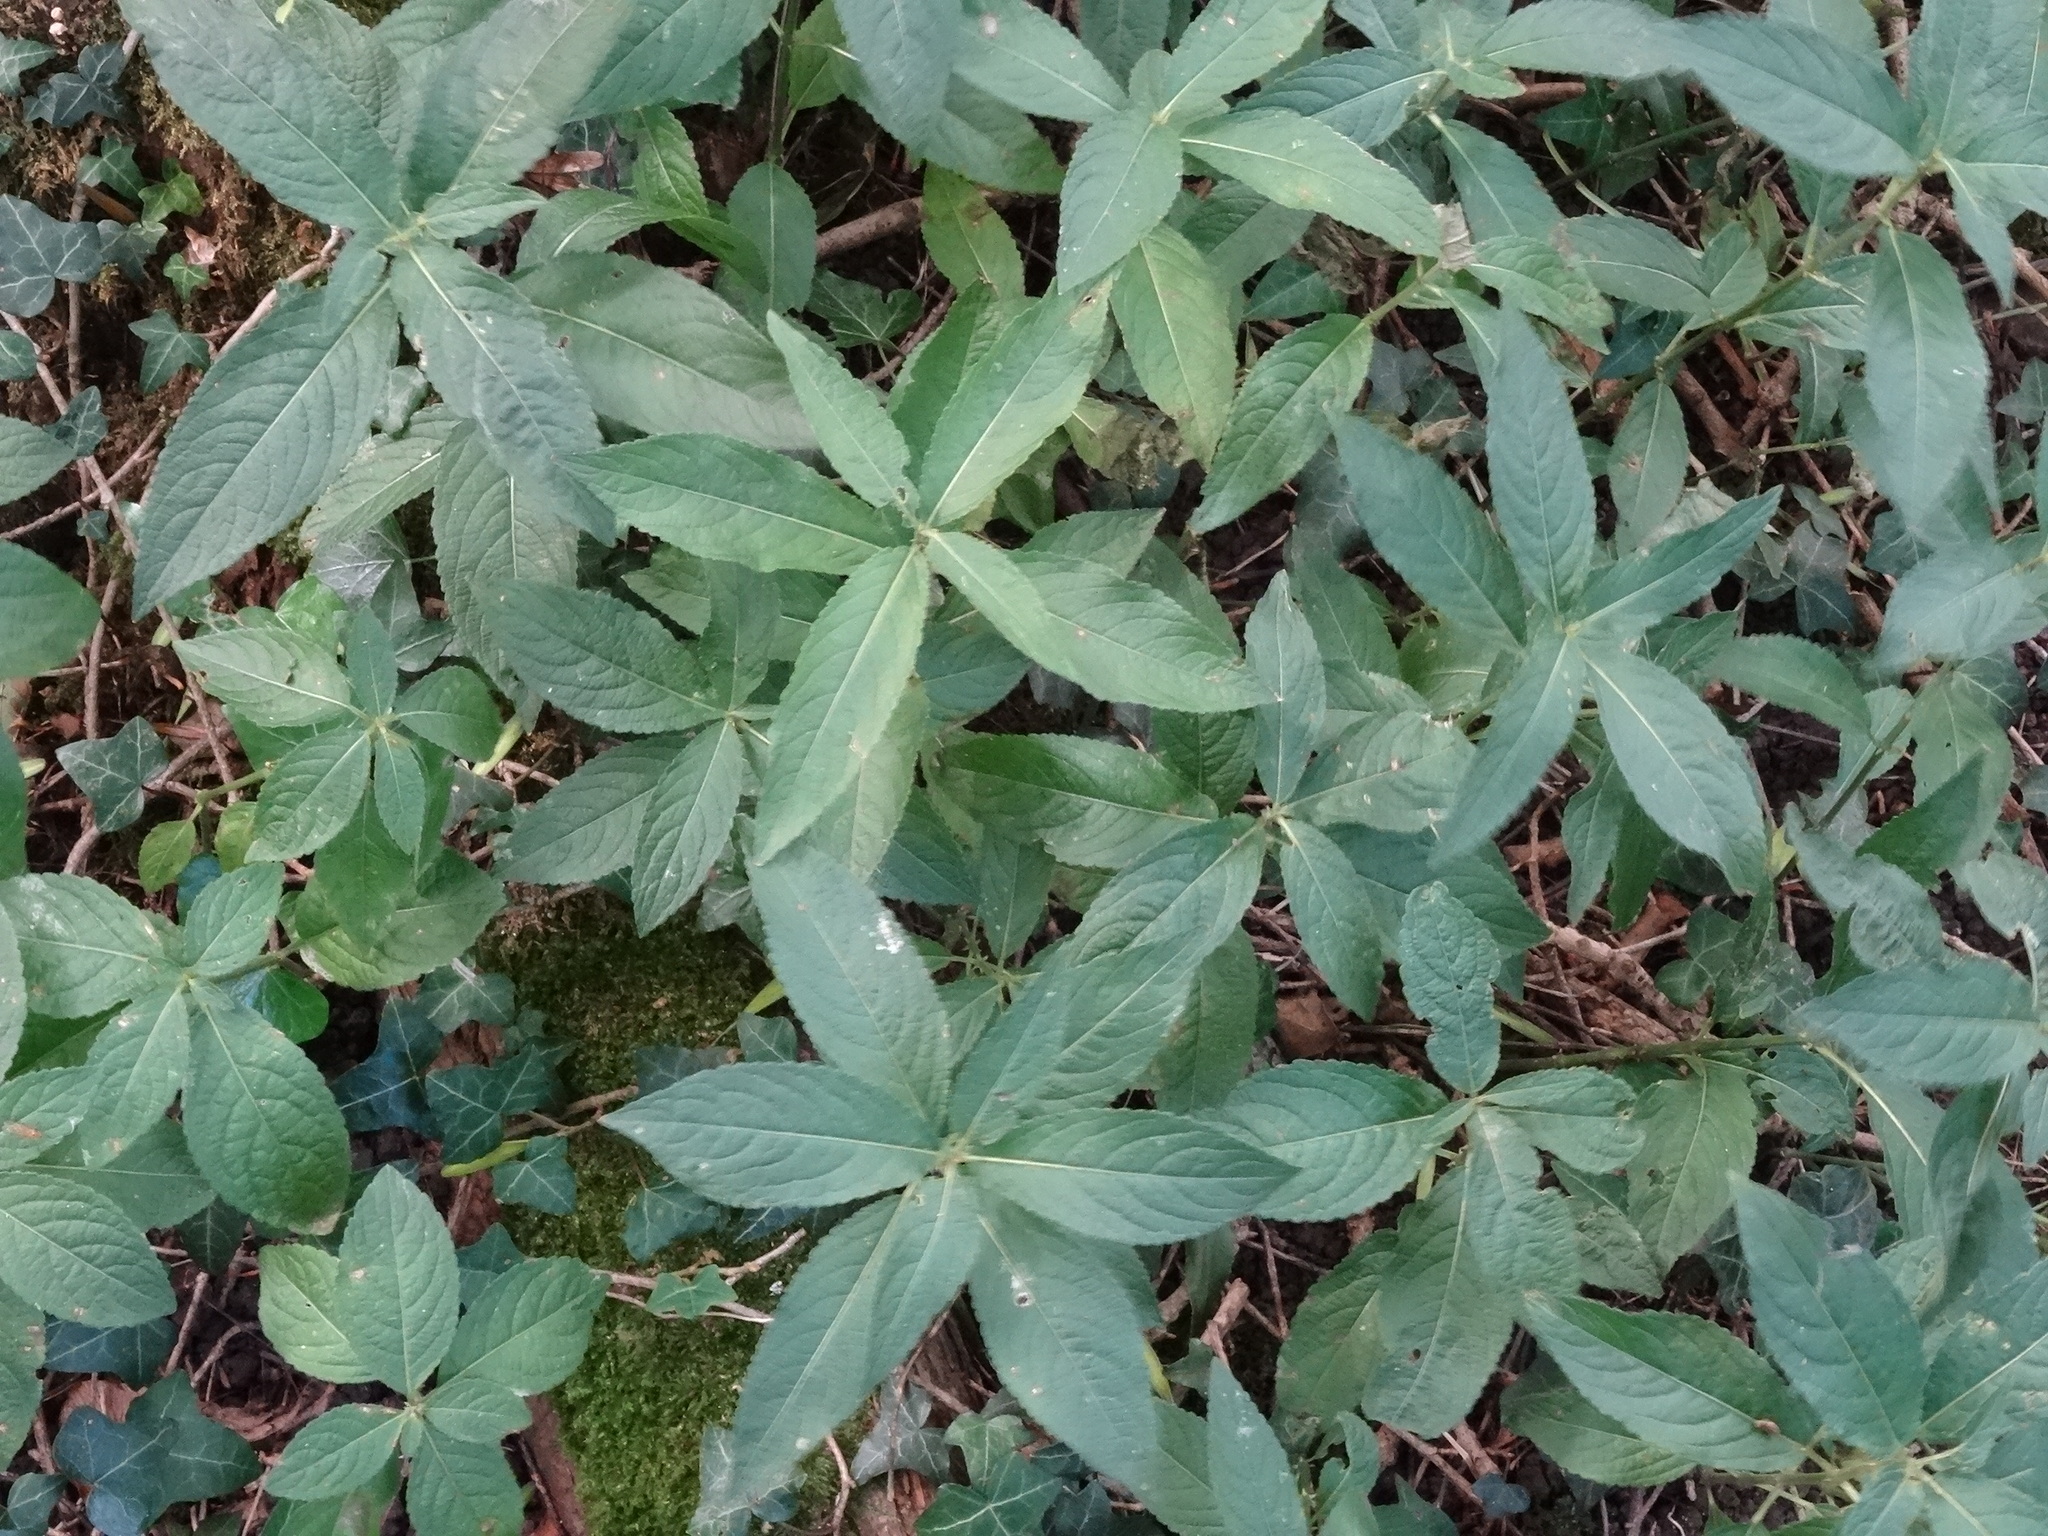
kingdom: Plantae
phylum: Tracheophyta
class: Magnoliopsida
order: Malpighiales
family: Euphorbiaceae
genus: Mercurialis
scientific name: Mercurialis perennis
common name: Dog mercury
